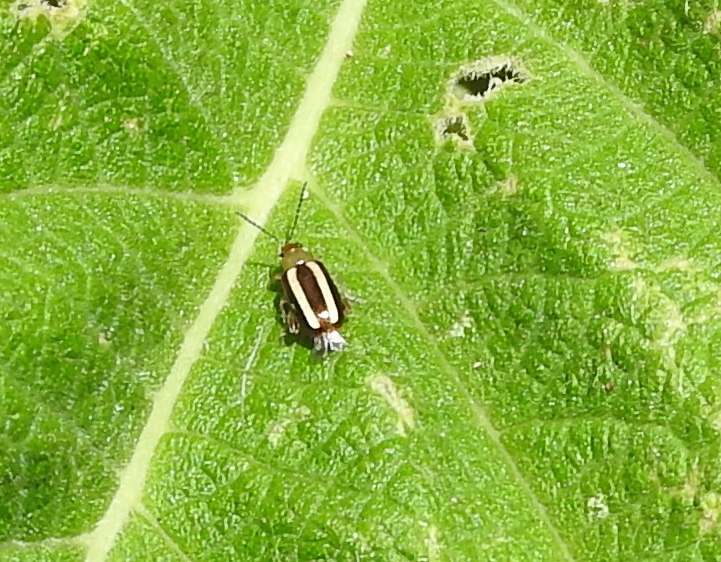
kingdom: Animalia
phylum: Arthropoda
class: Insecta
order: Coleoptera
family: Chrysomelidae
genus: Systena
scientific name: Systena
